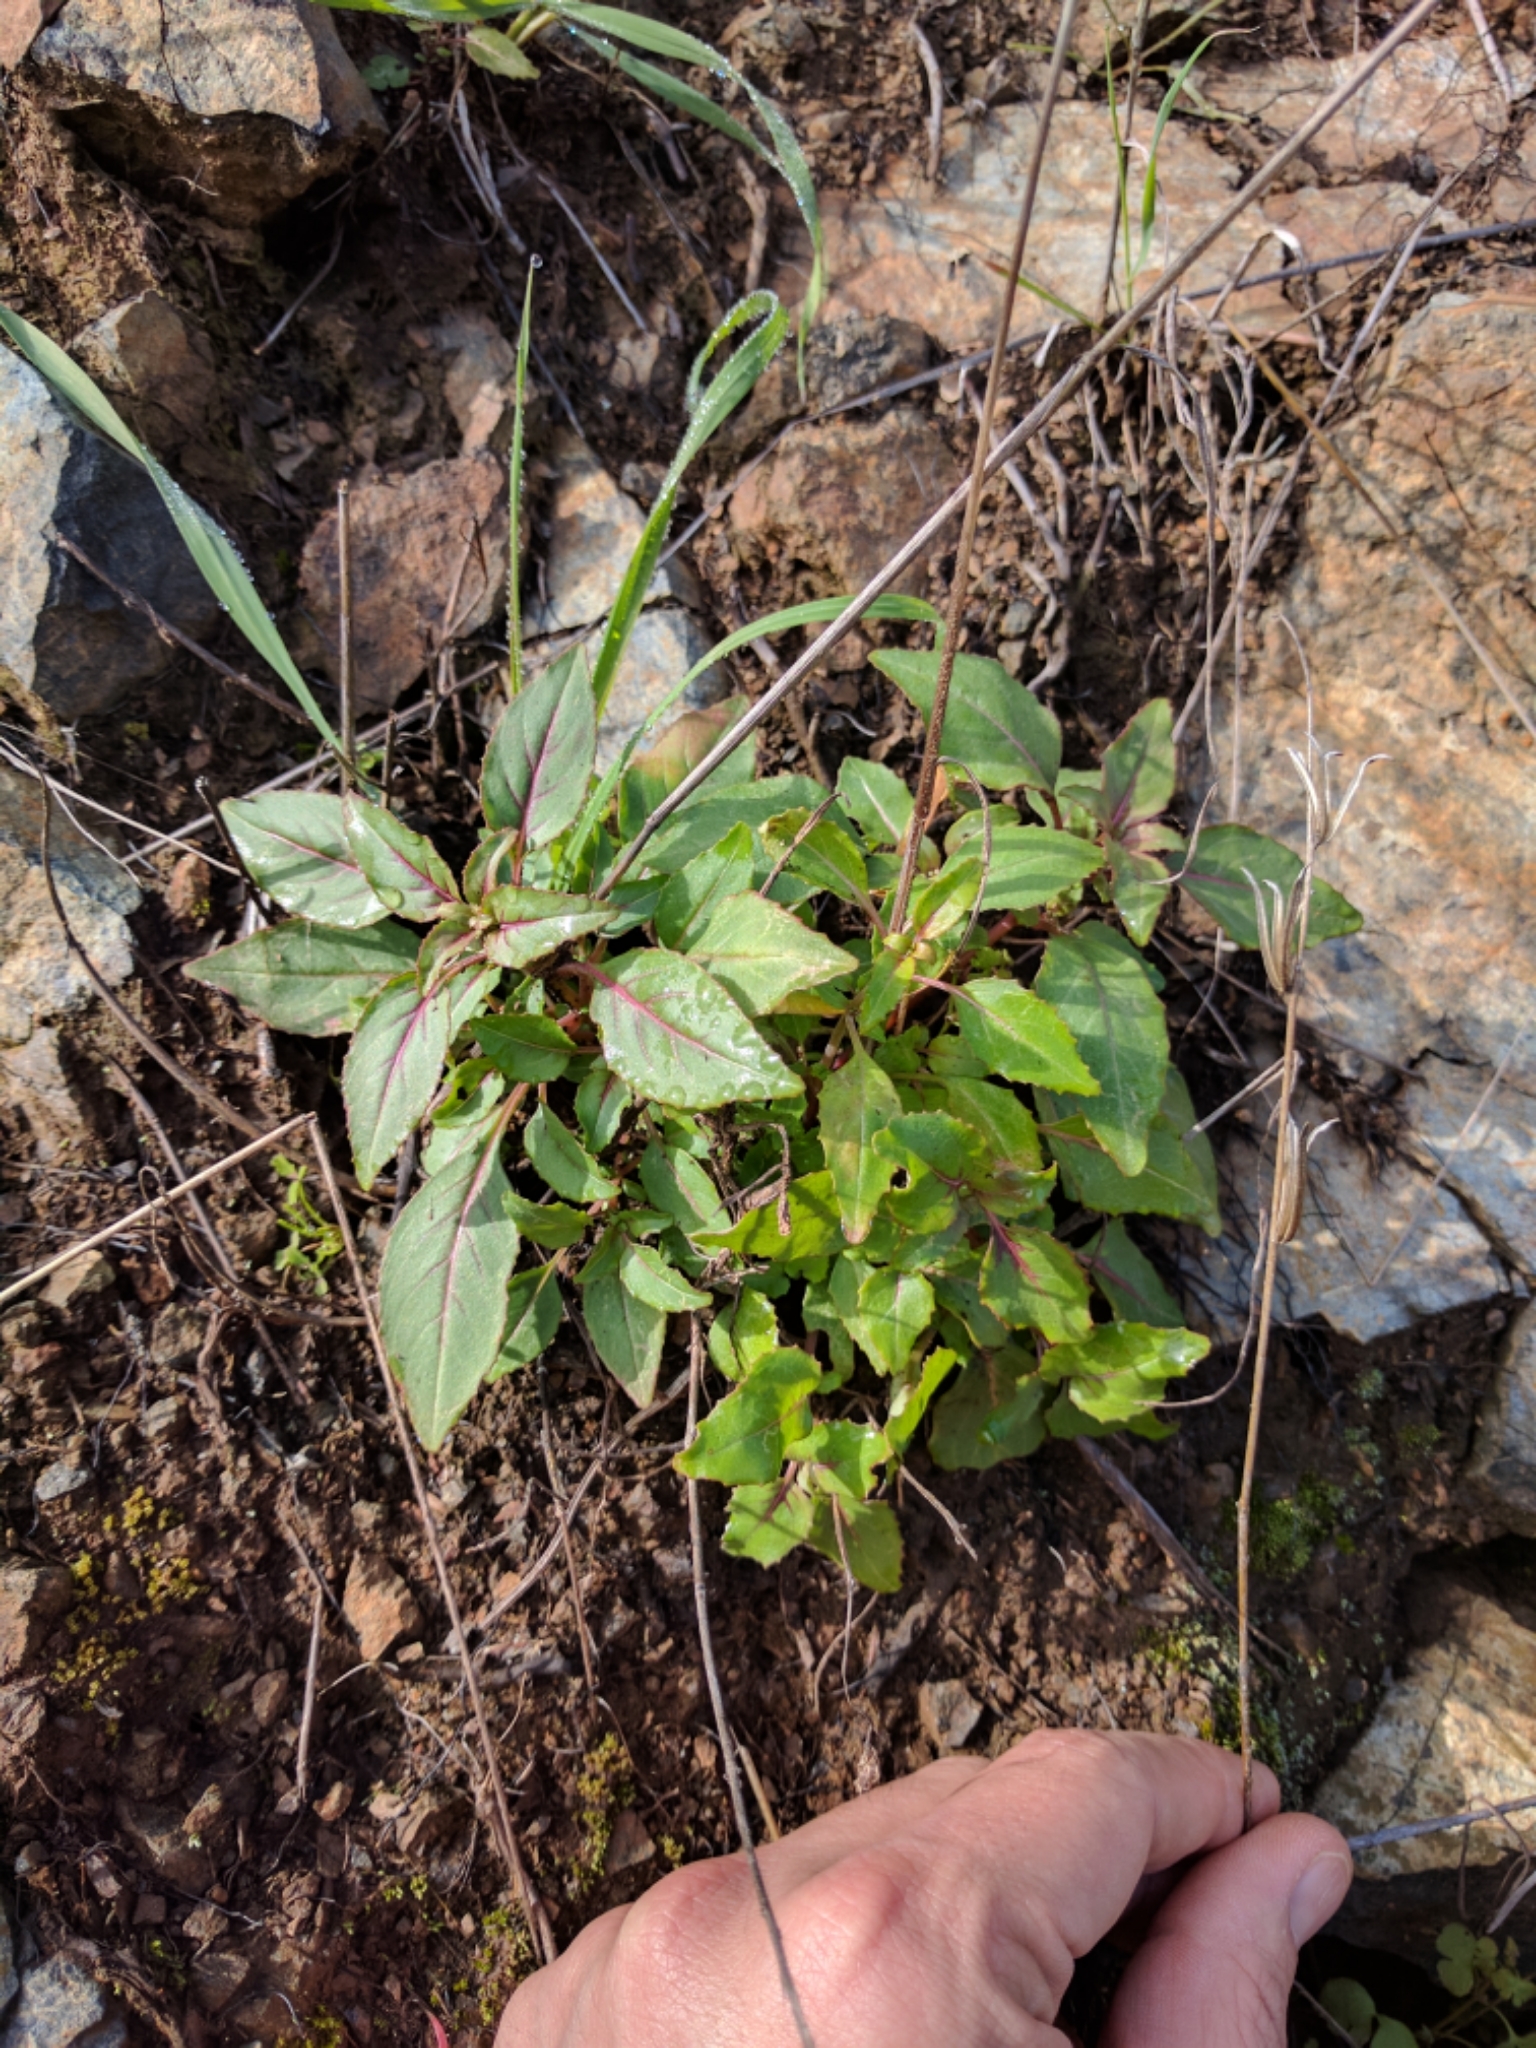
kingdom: Plantae
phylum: Tracheophyta
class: Magnoliopsida
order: Myrtales
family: Onagraceae
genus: Clarkia
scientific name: Clarkia unguiculata
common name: Clarkia
